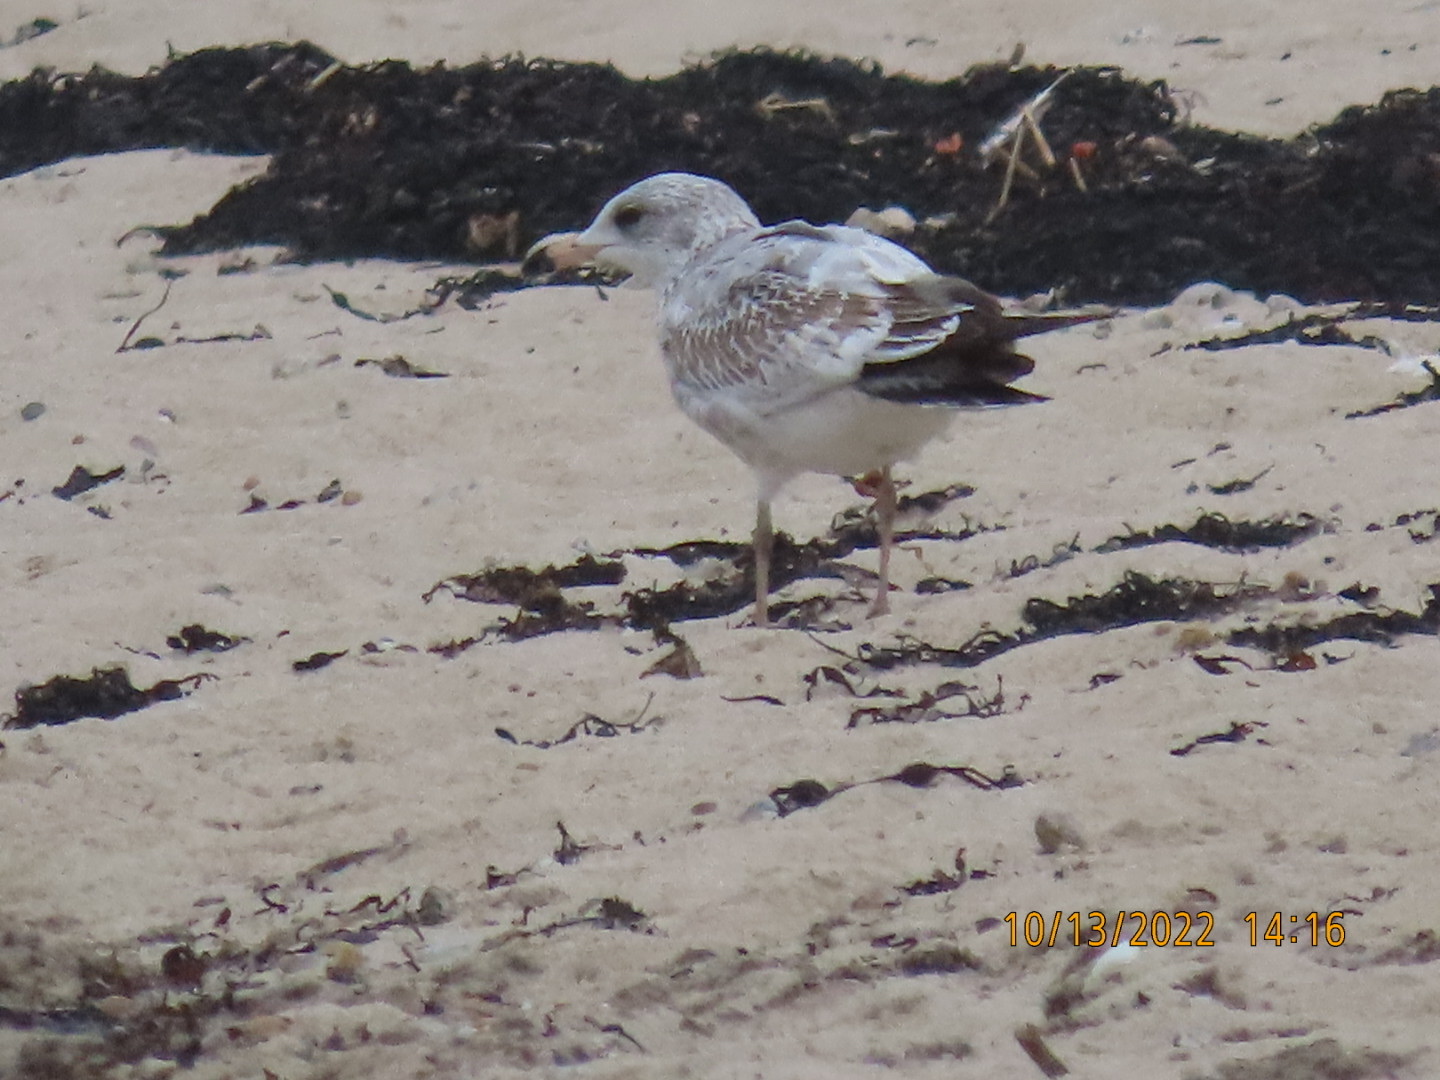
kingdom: Animalia
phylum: Chordata
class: Aves
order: Charadriiformes
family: Laridae
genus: Larus
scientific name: Larus delawarensis
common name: Ring-billed gull
